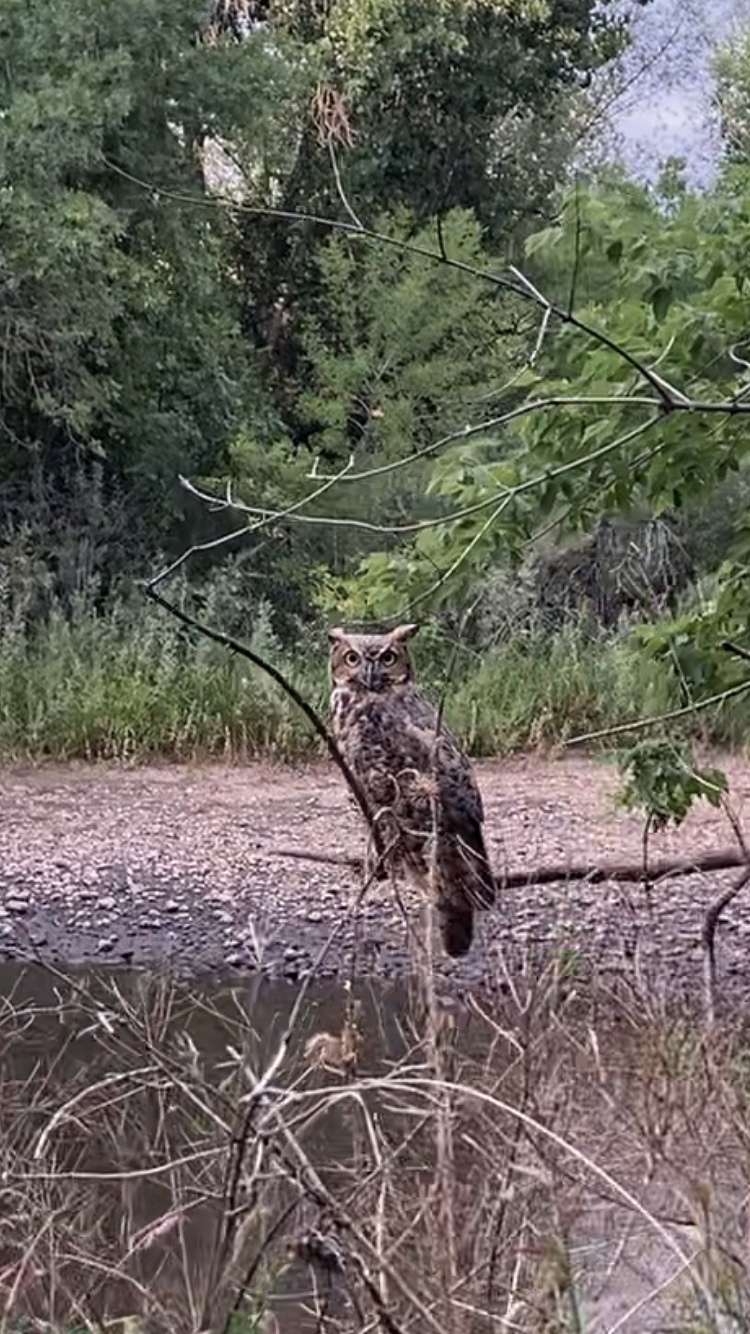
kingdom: Animalia
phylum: Chordata
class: Aves
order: Strigiformes
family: Strigidae
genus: Bubo
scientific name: Bubo virginianus
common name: Great horned owl
